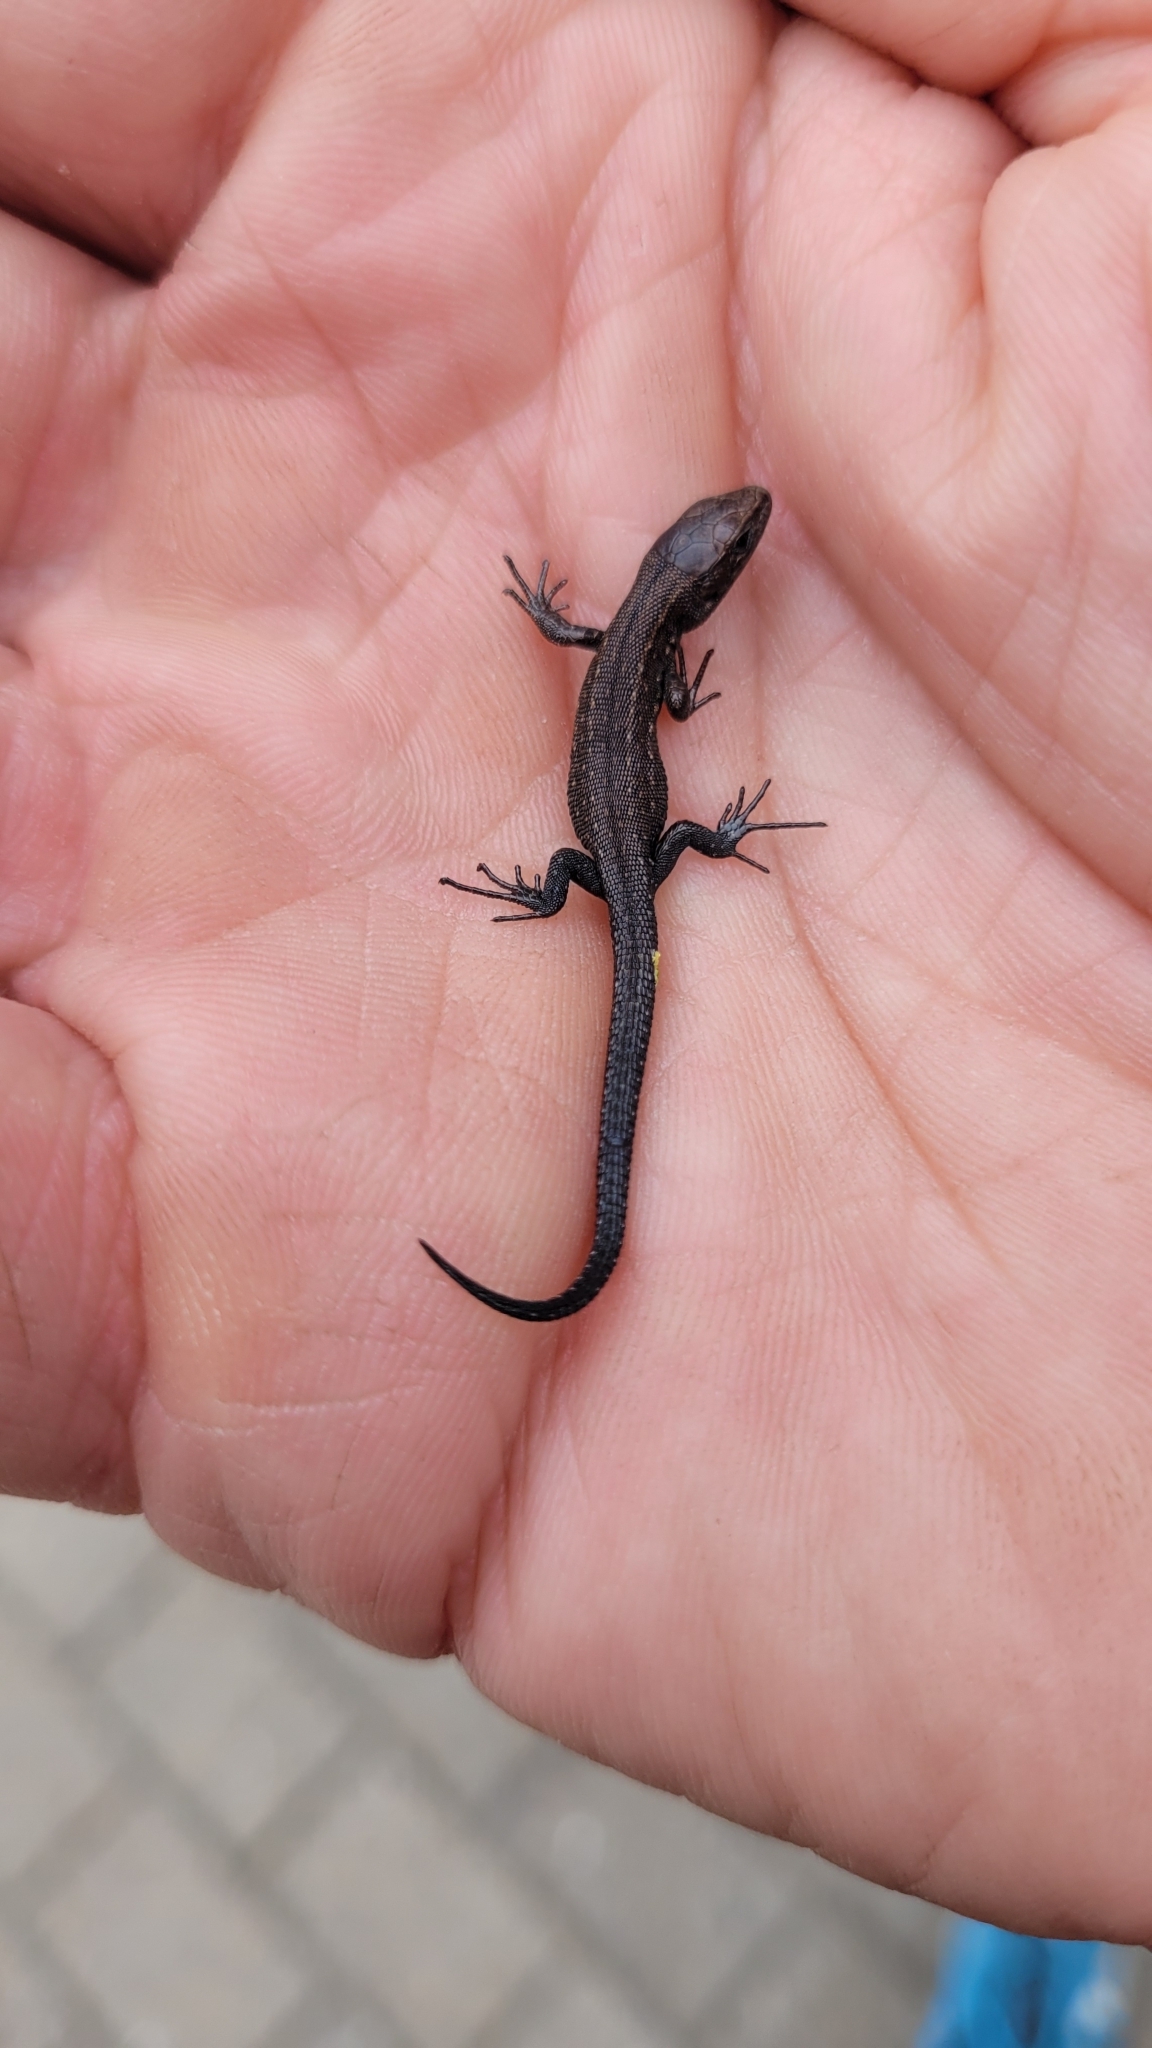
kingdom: Animalia
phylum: Chordata
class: Squamata
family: Lacertidae
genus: Zootoca
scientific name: Zootoca vivipara
